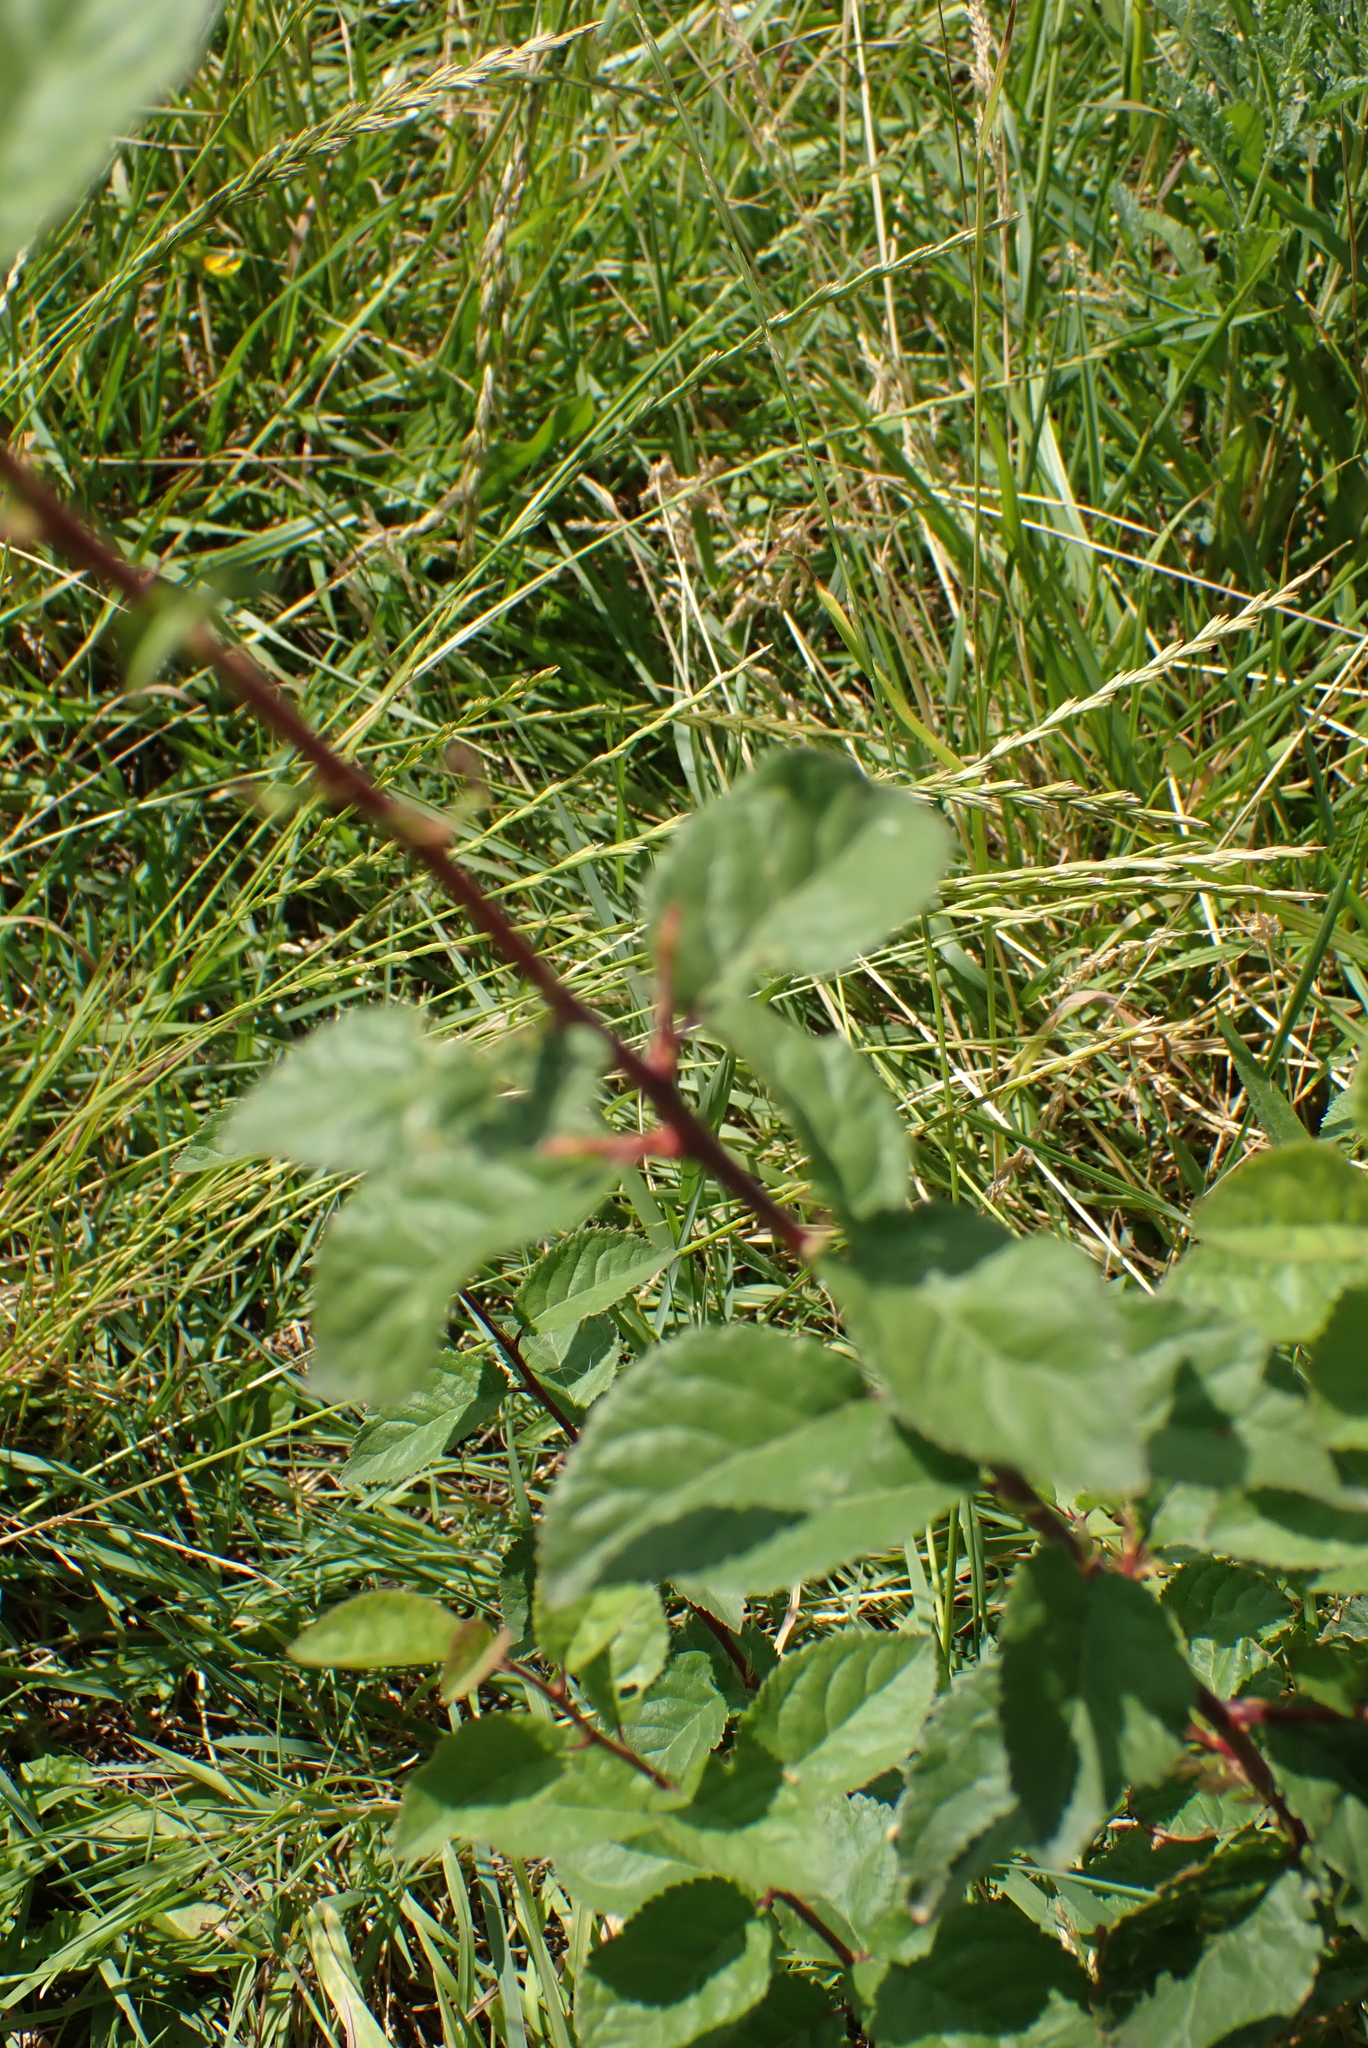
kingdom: Plantae
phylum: Tracheophyta
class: Magnoliopsida
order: Rosales
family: Rosaceae
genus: Prunus
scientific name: Prunus spinosa
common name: Blackthorn
